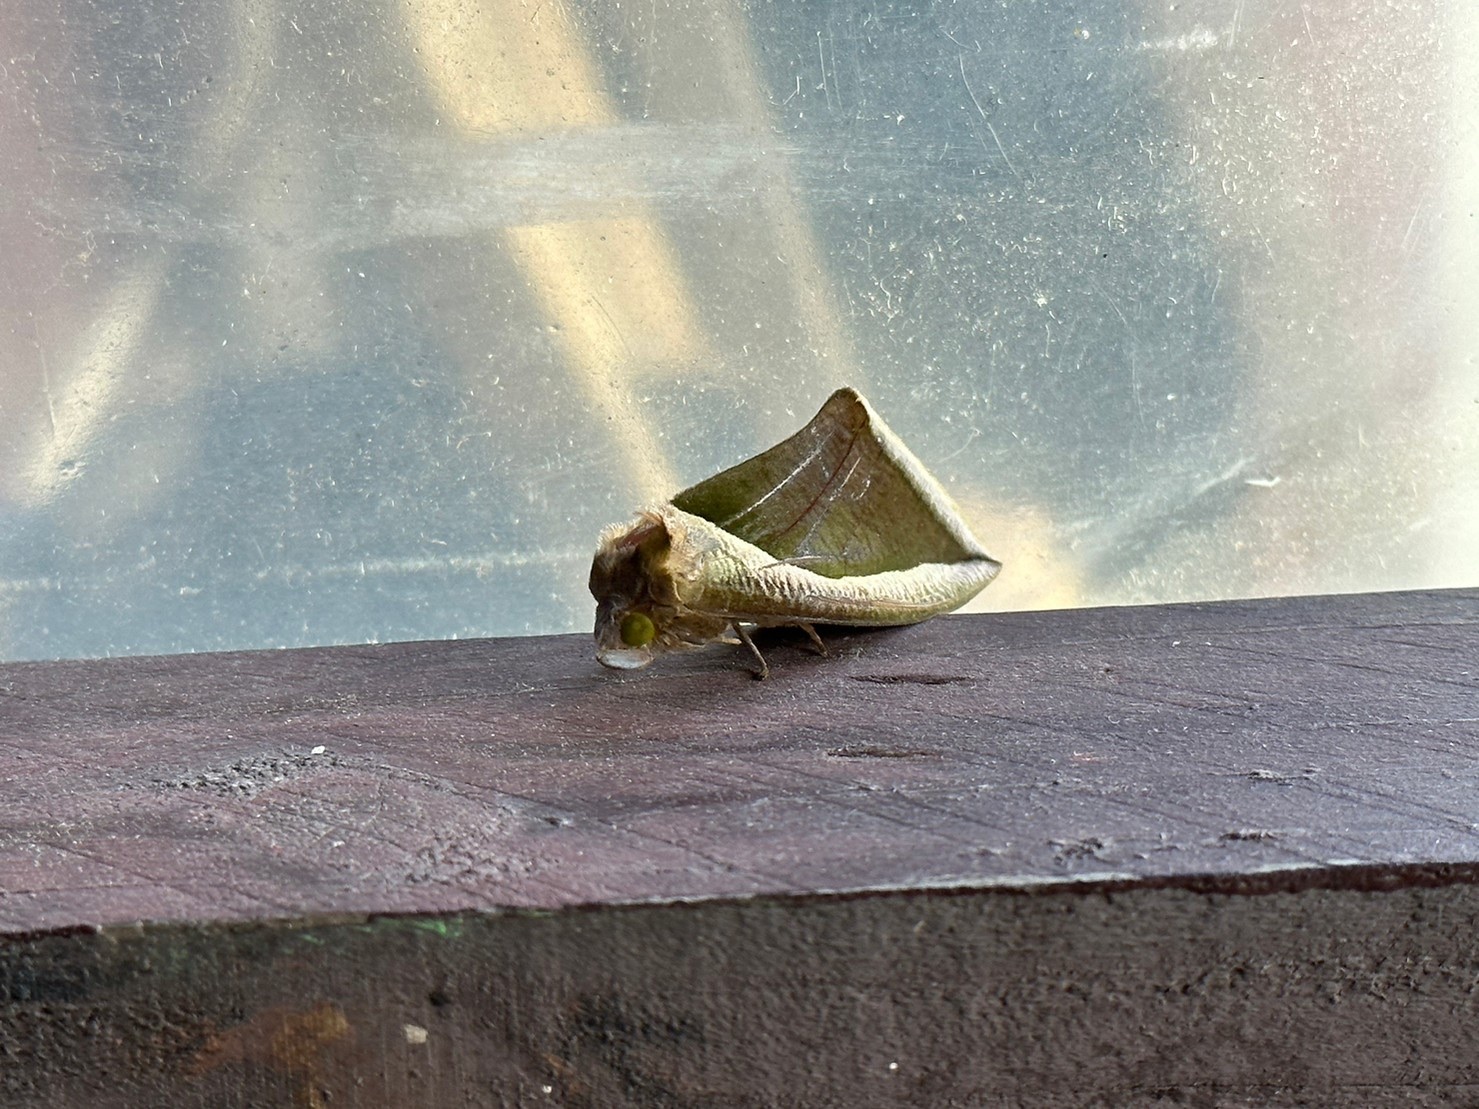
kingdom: Animalia
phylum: Arthropoda
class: Insecta
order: Lepidoptera
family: Erebidae
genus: Eudocima
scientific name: Eudocima salaminia
